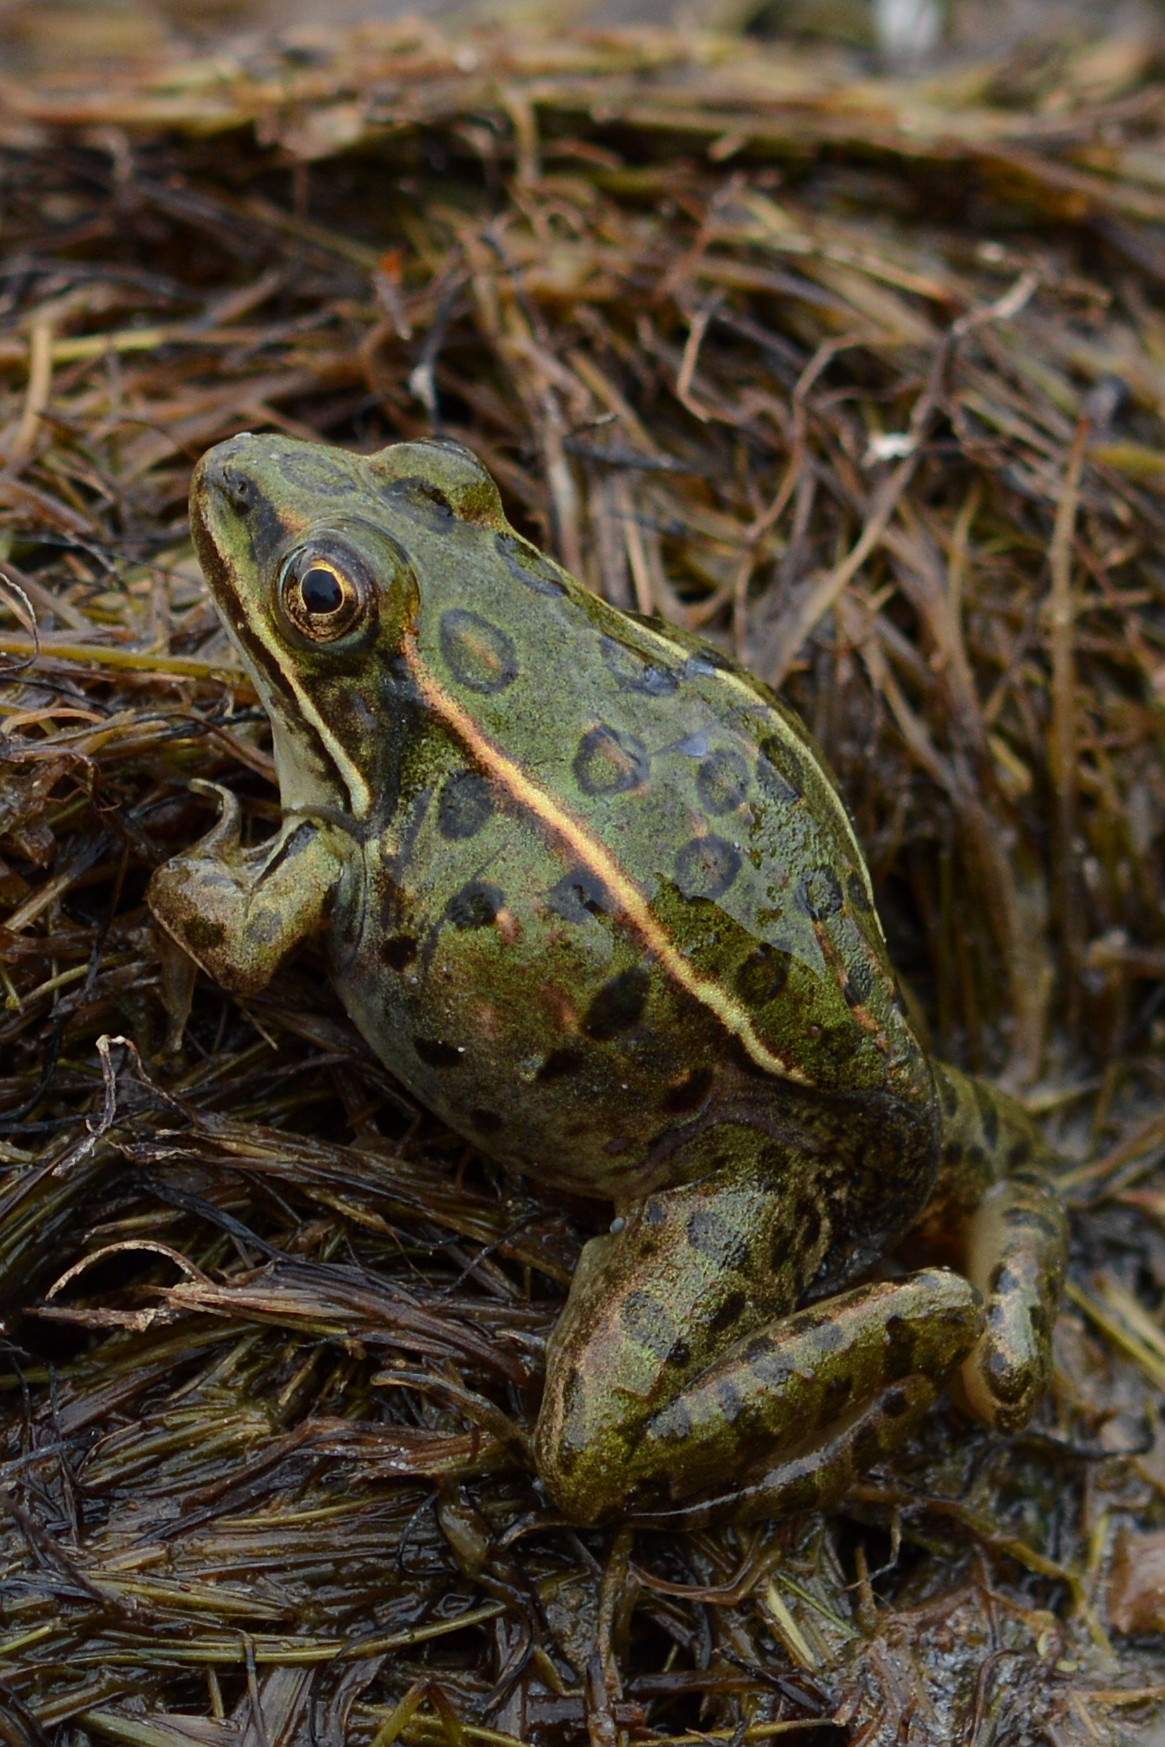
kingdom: Animalia
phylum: Chordata
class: Amphibia
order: Anura
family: Ranidae
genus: Lithobates
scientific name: Lithobates pipiens
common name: Northern leopard frog
